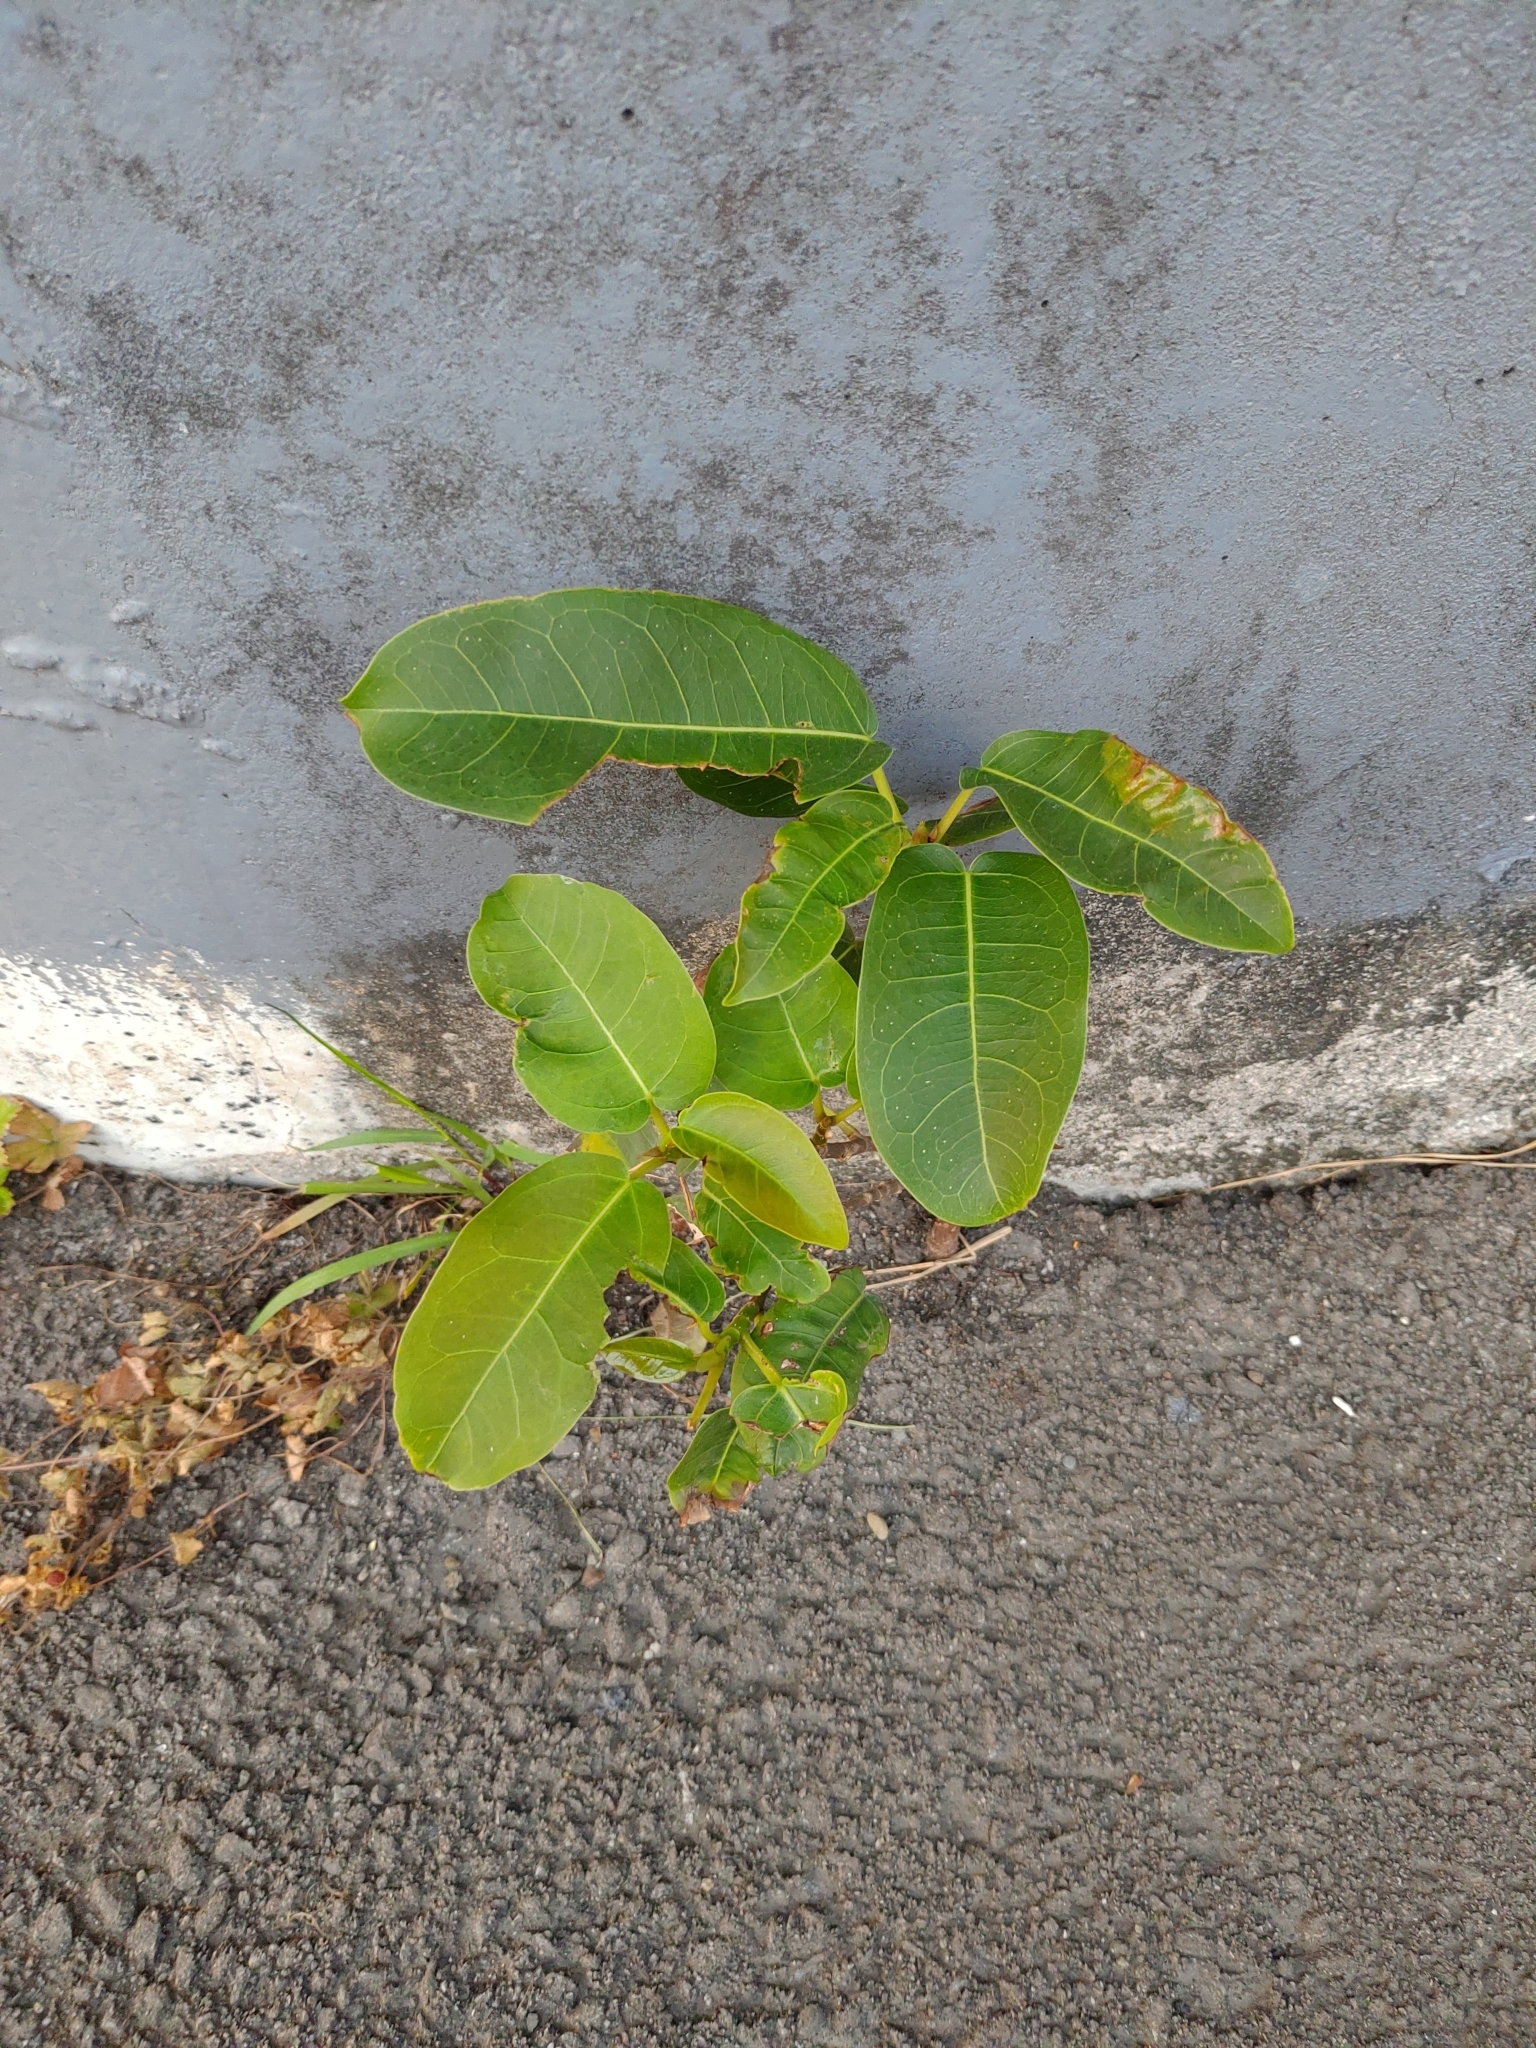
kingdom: Plantae
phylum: Tracheophyta
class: Magnoliopsida
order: Rosales
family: Moraceae
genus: Ficus
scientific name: Ficus subpisocarpa
